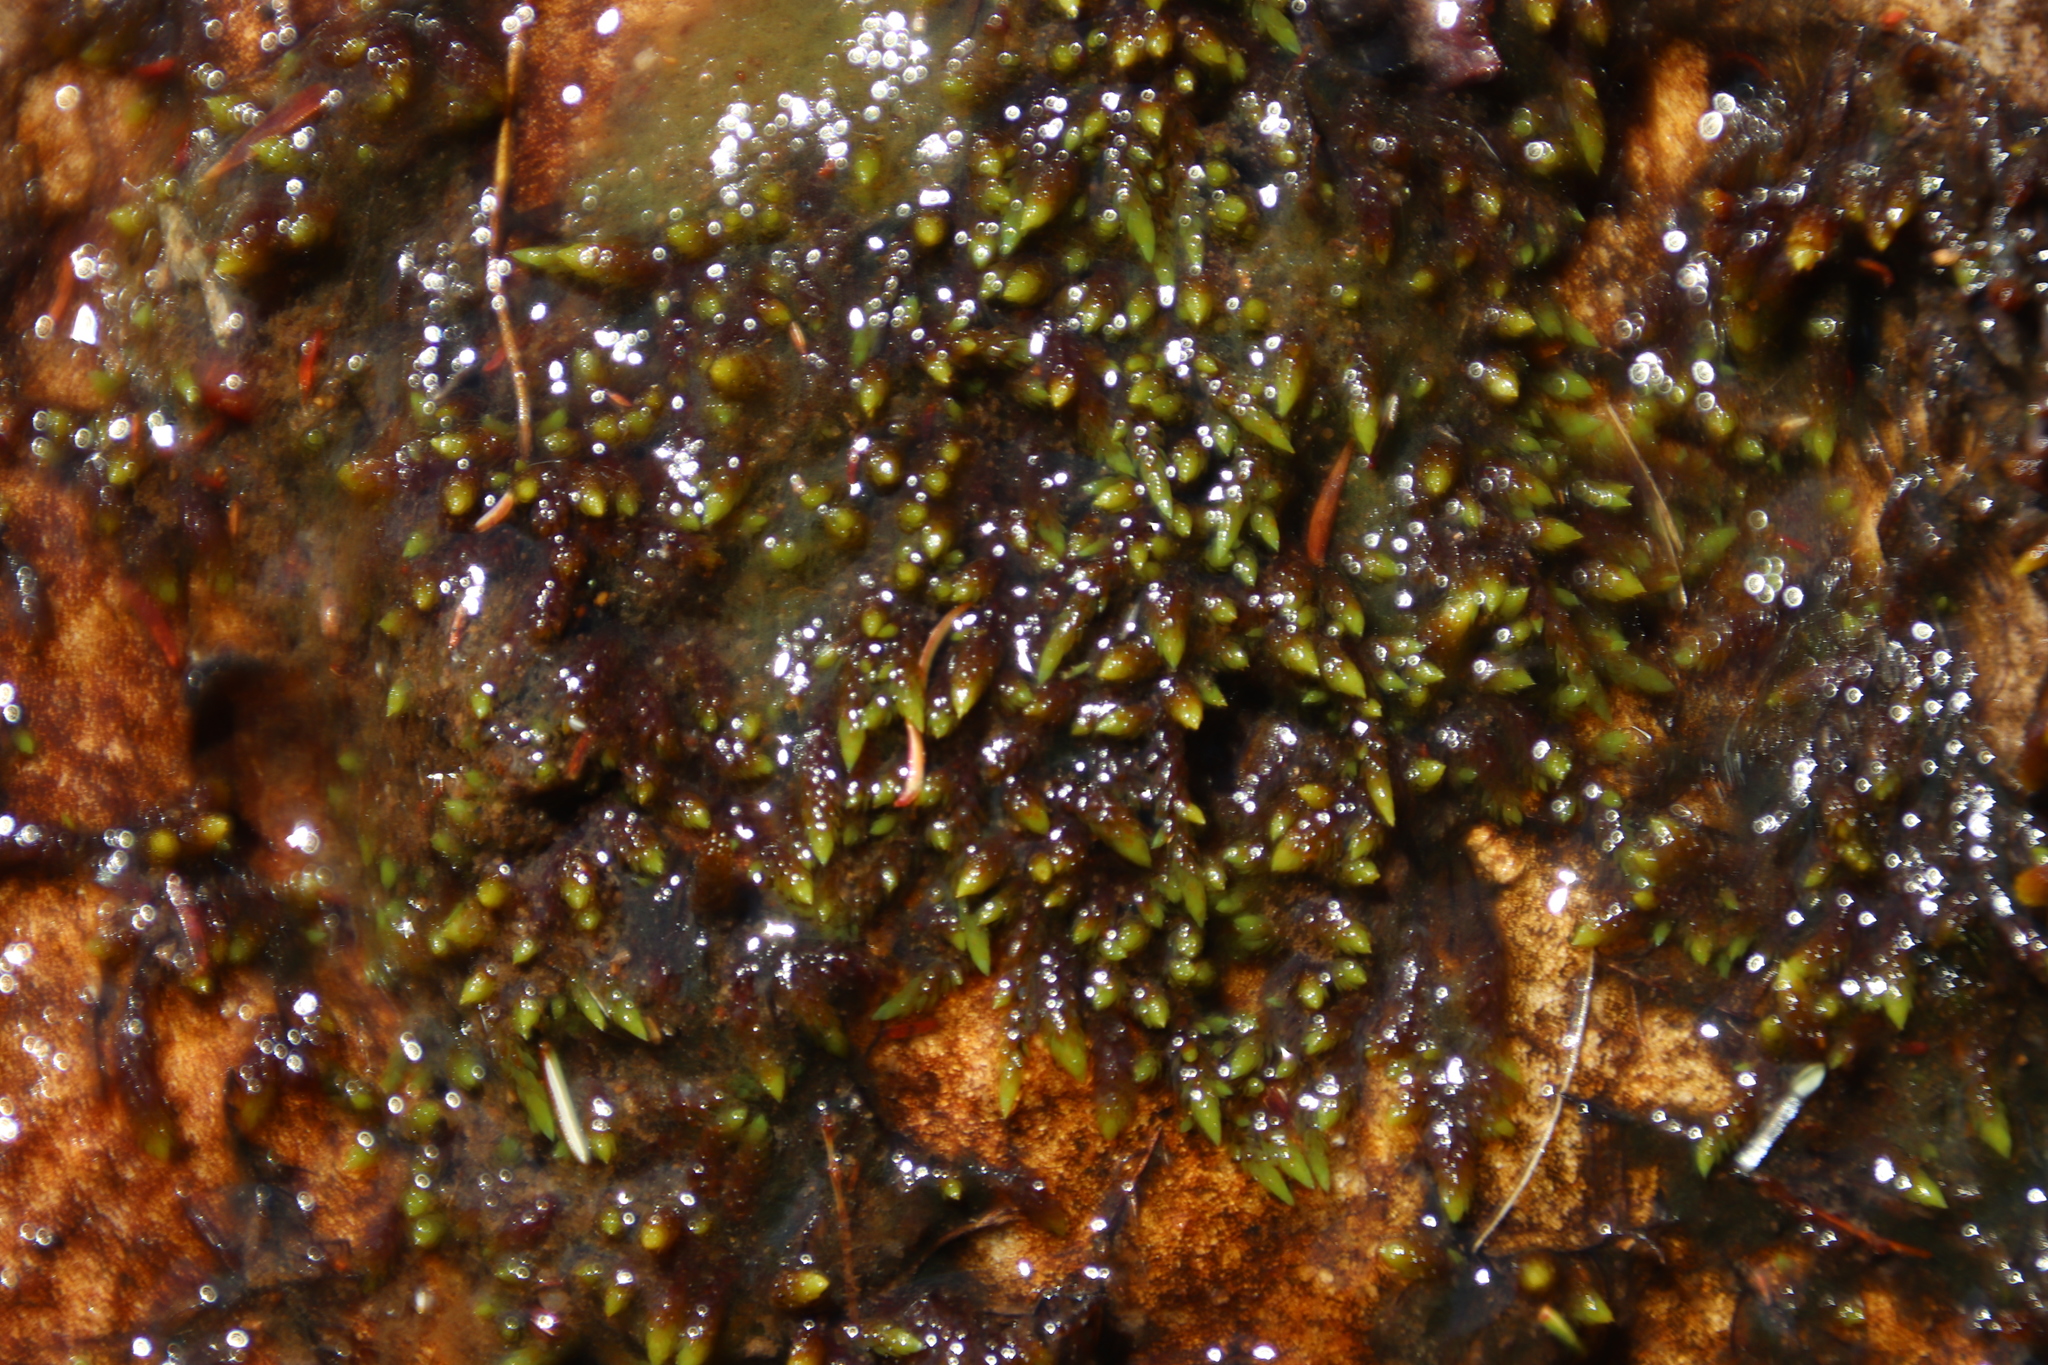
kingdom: Plantae
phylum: Bryophyta
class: Bryopsida
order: Hedwigiales
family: Hedwigiaceae
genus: Rhacocarpus
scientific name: Rhacocarpus purpurascens
